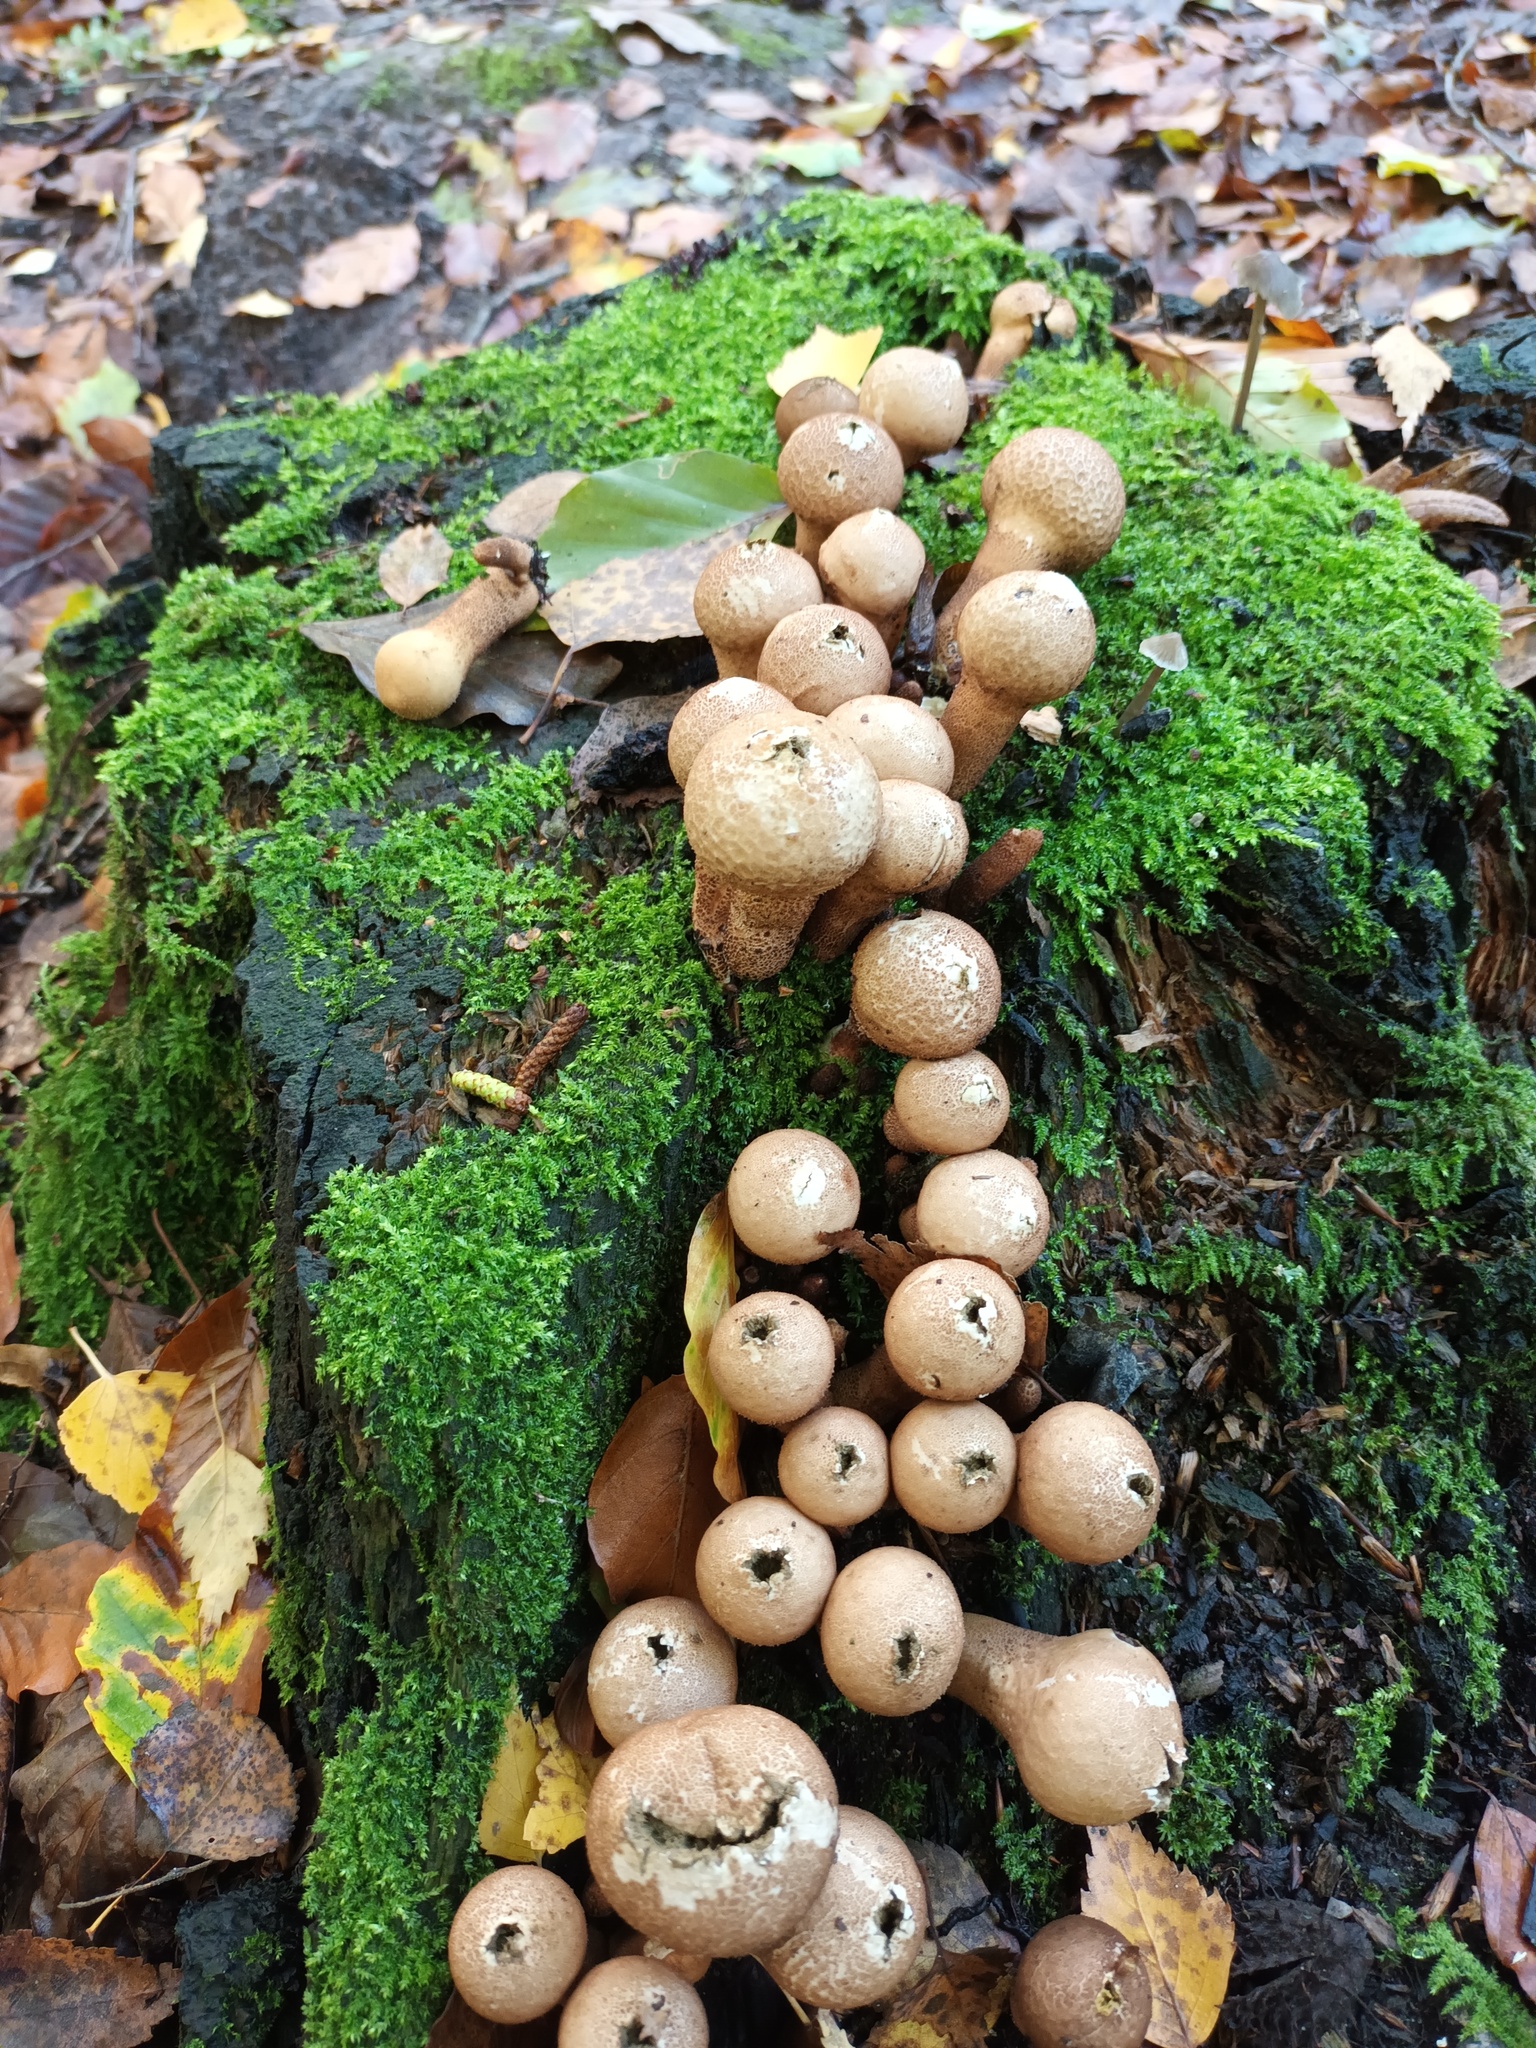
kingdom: Fungi
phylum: Basidiomycota
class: Agaricomycetes
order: Agaricales
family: Lycoperdaceae
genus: Apioperdon
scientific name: Apioperdon pyriforme
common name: Pear-shaped puffball
